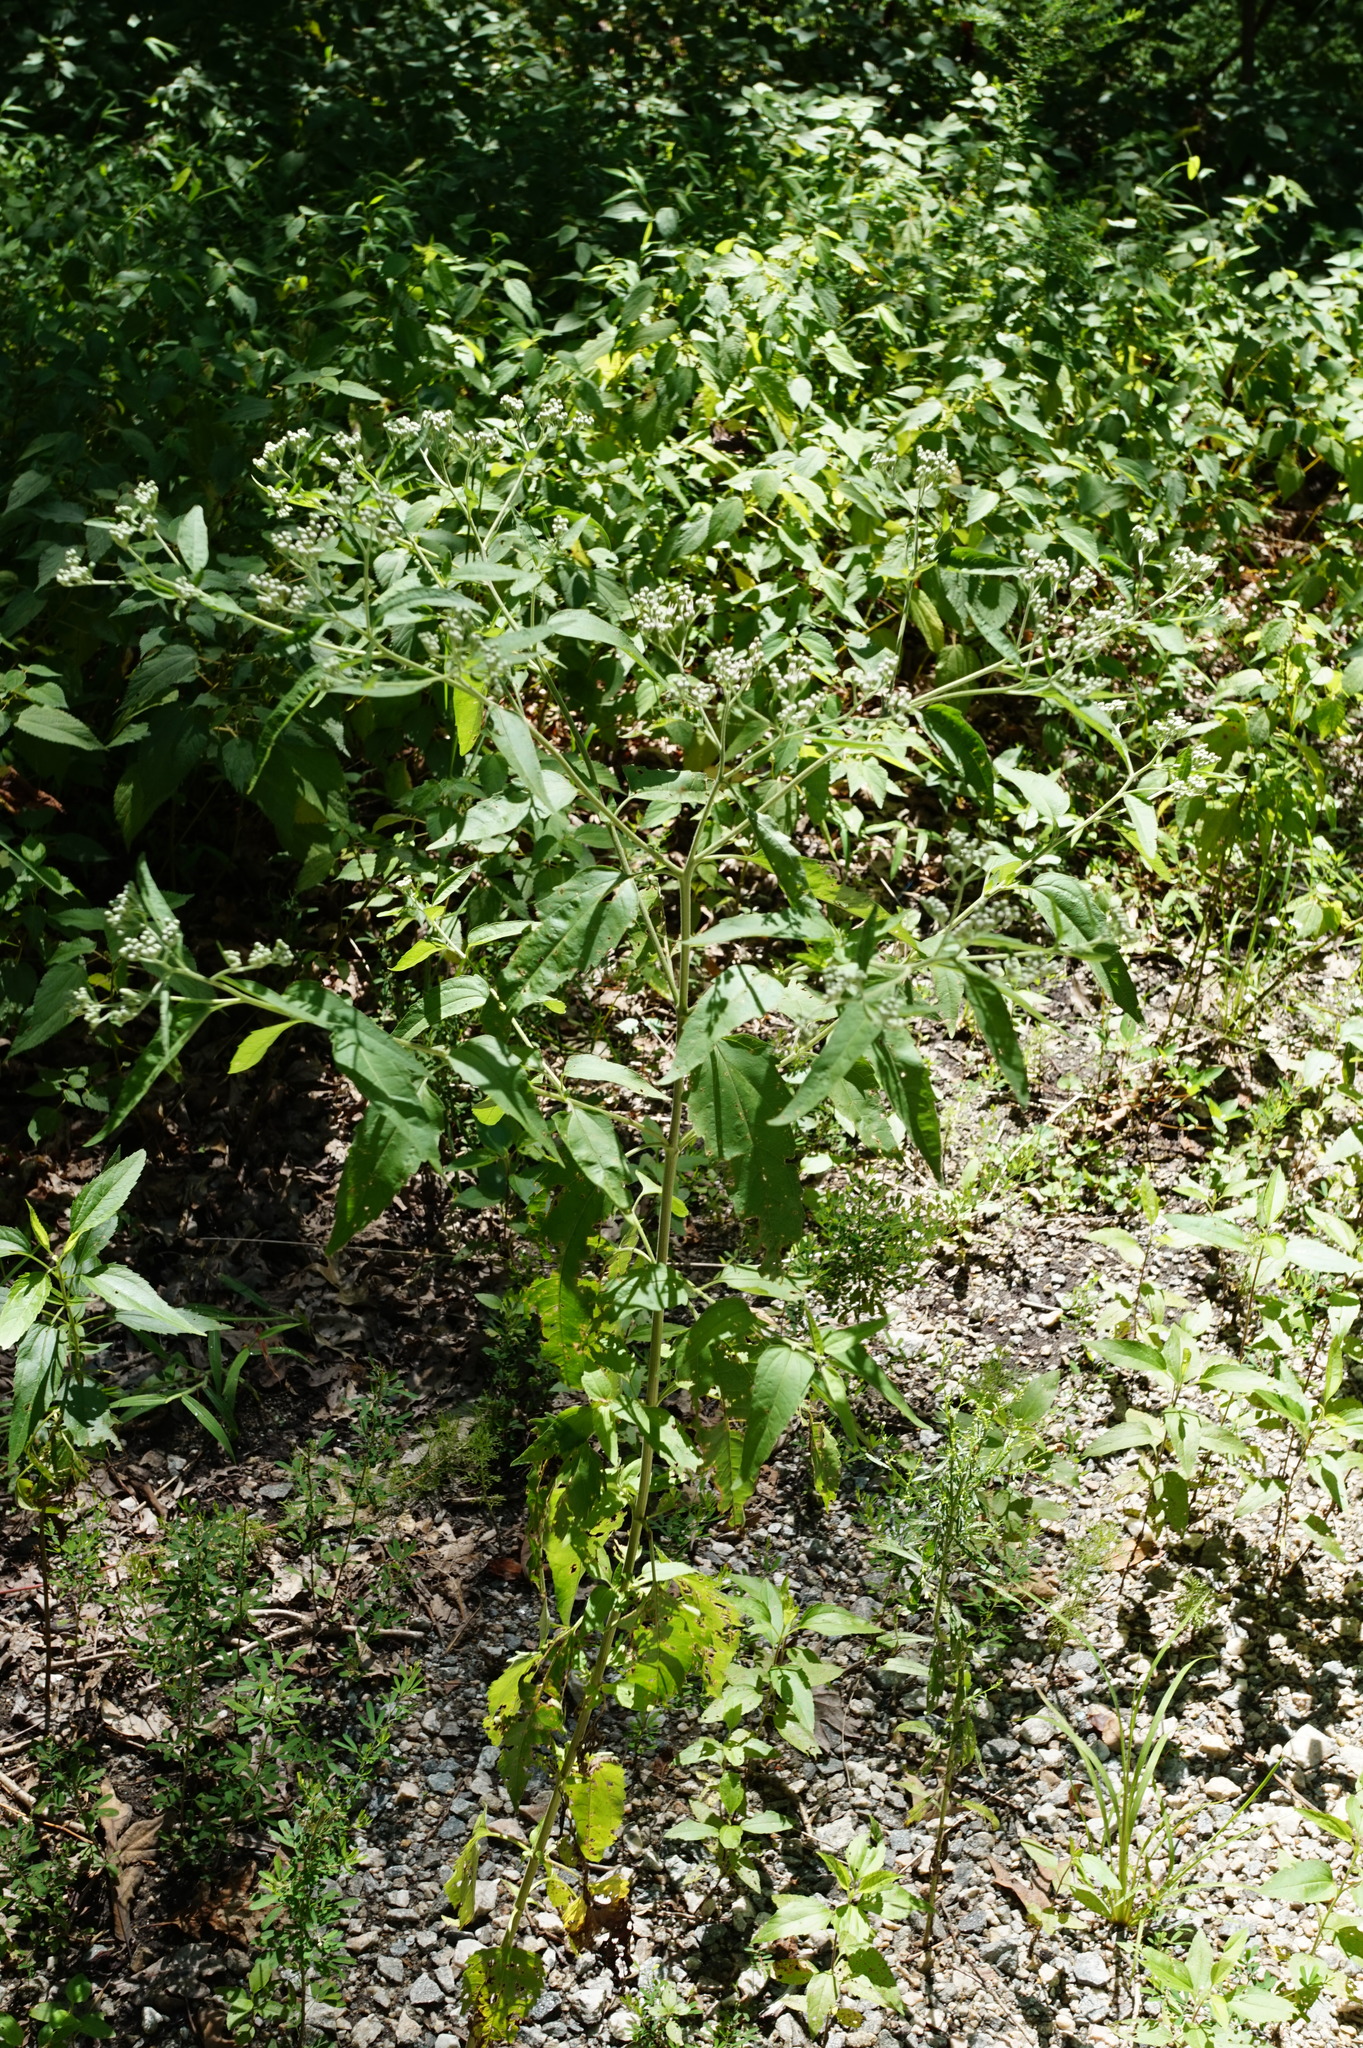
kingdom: Plantae
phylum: Tracheophyta
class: Magnoliopsida
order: Asterales
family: Asteraceae
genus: Eupatorium
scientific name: Eupatorium serotinum
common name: Late boneset
